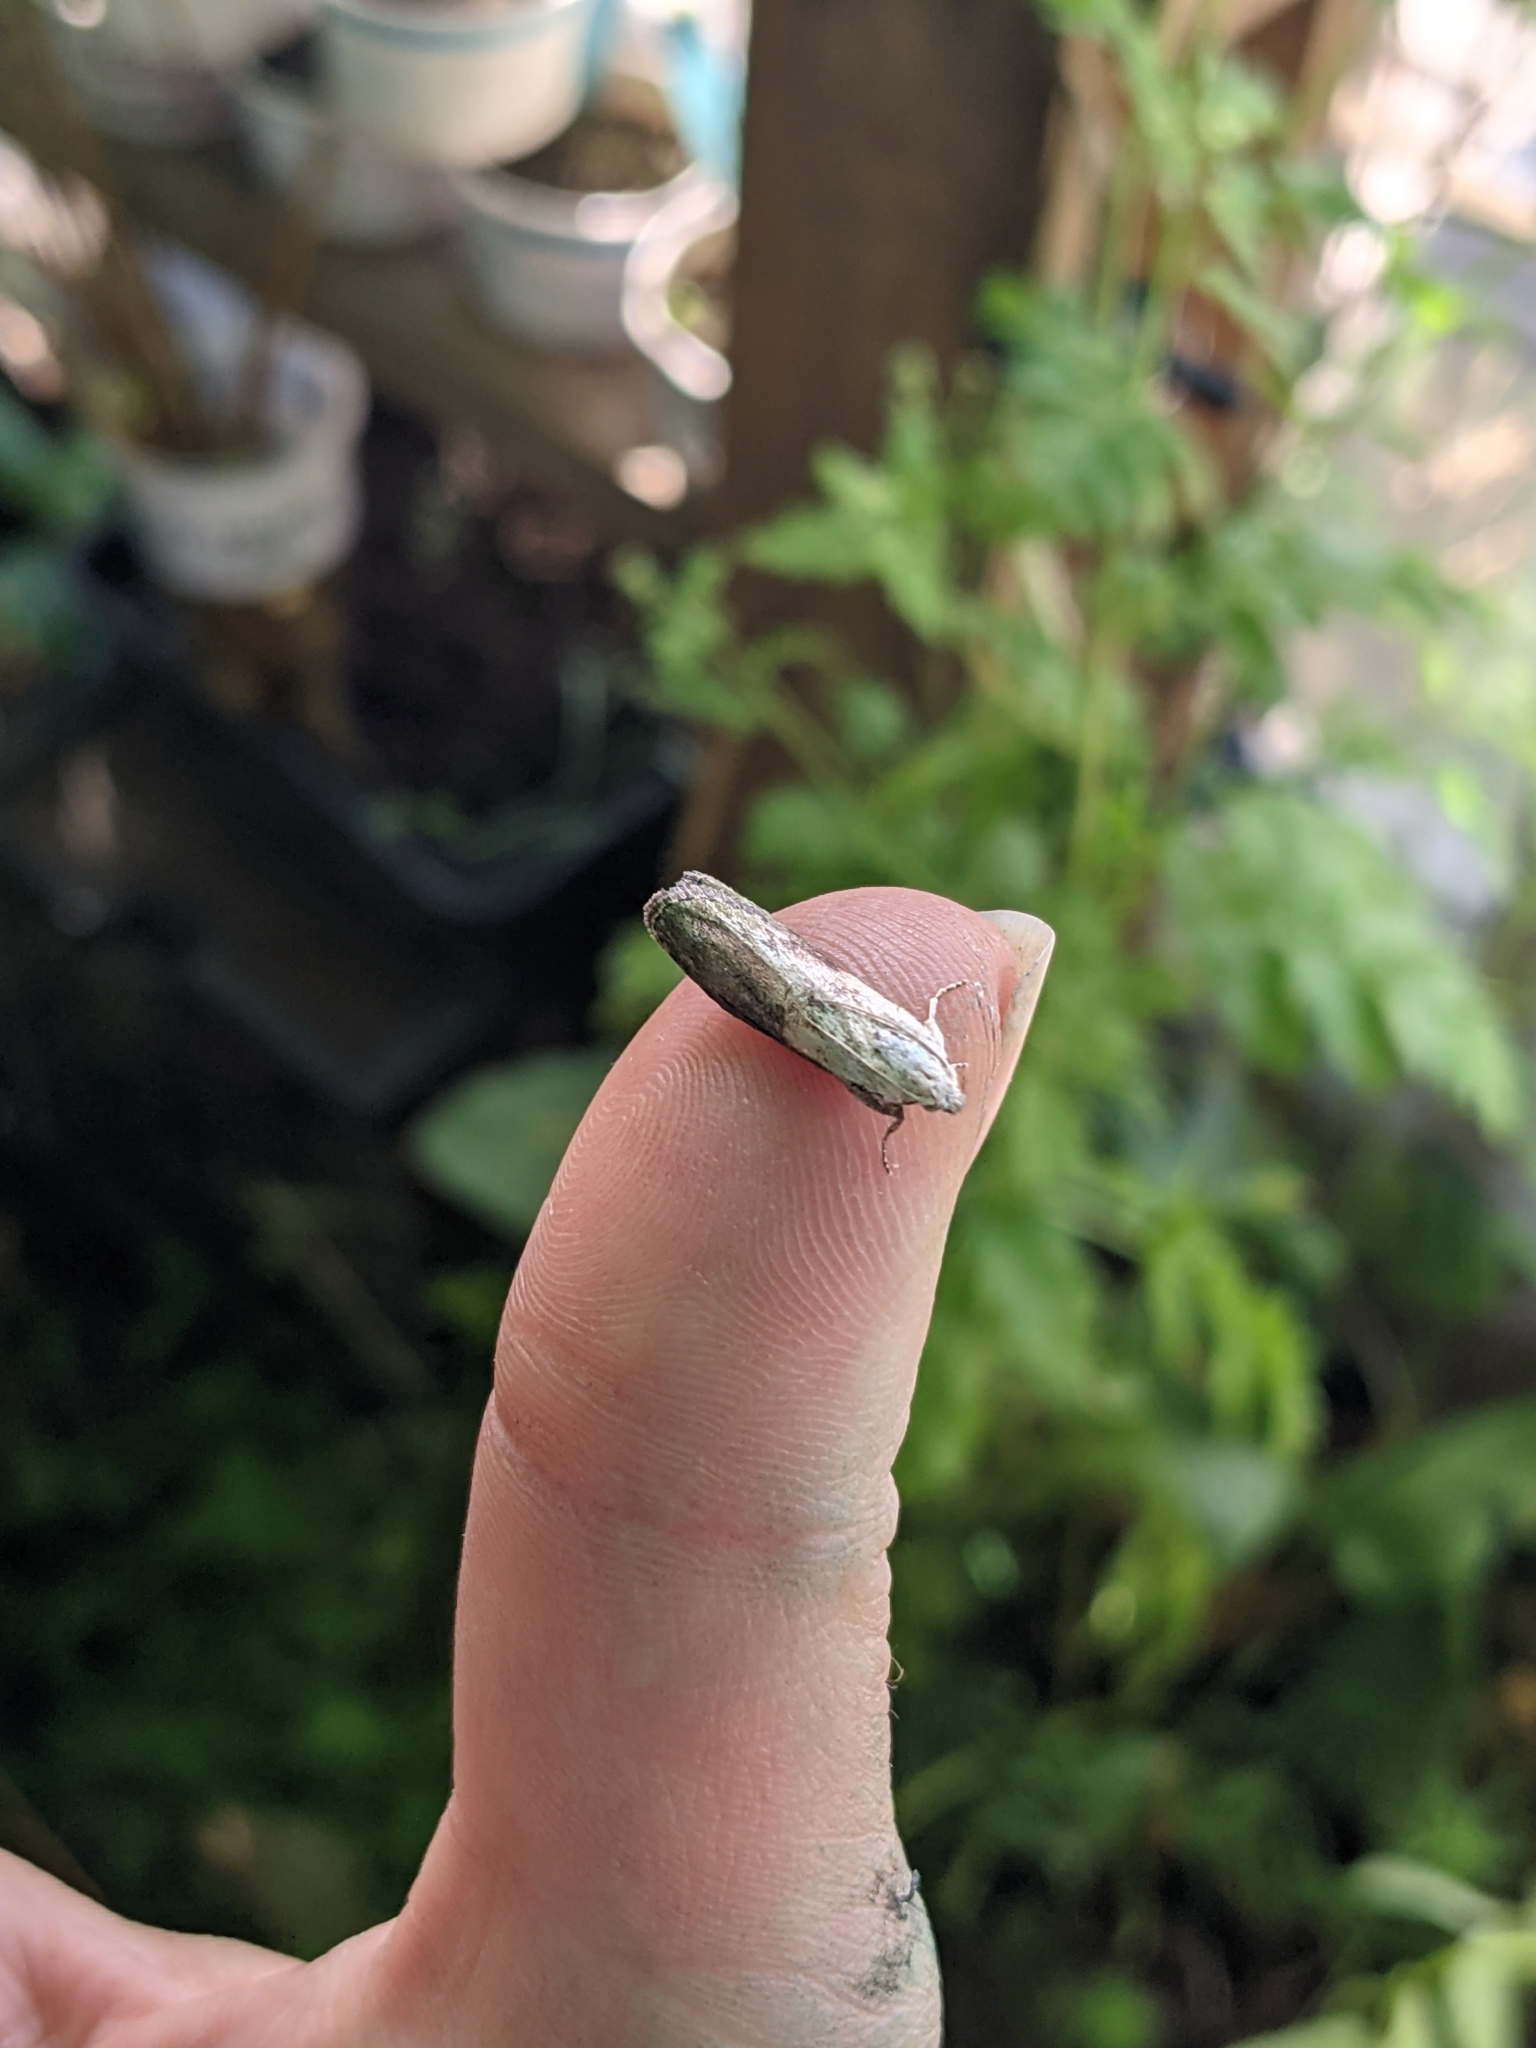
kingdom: Animalia
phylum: Arthropoda
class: Insecta
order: Lepidoptera
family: Pyralidae
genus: Aphomia
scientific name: Aphomia sociella
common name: Bee moth
